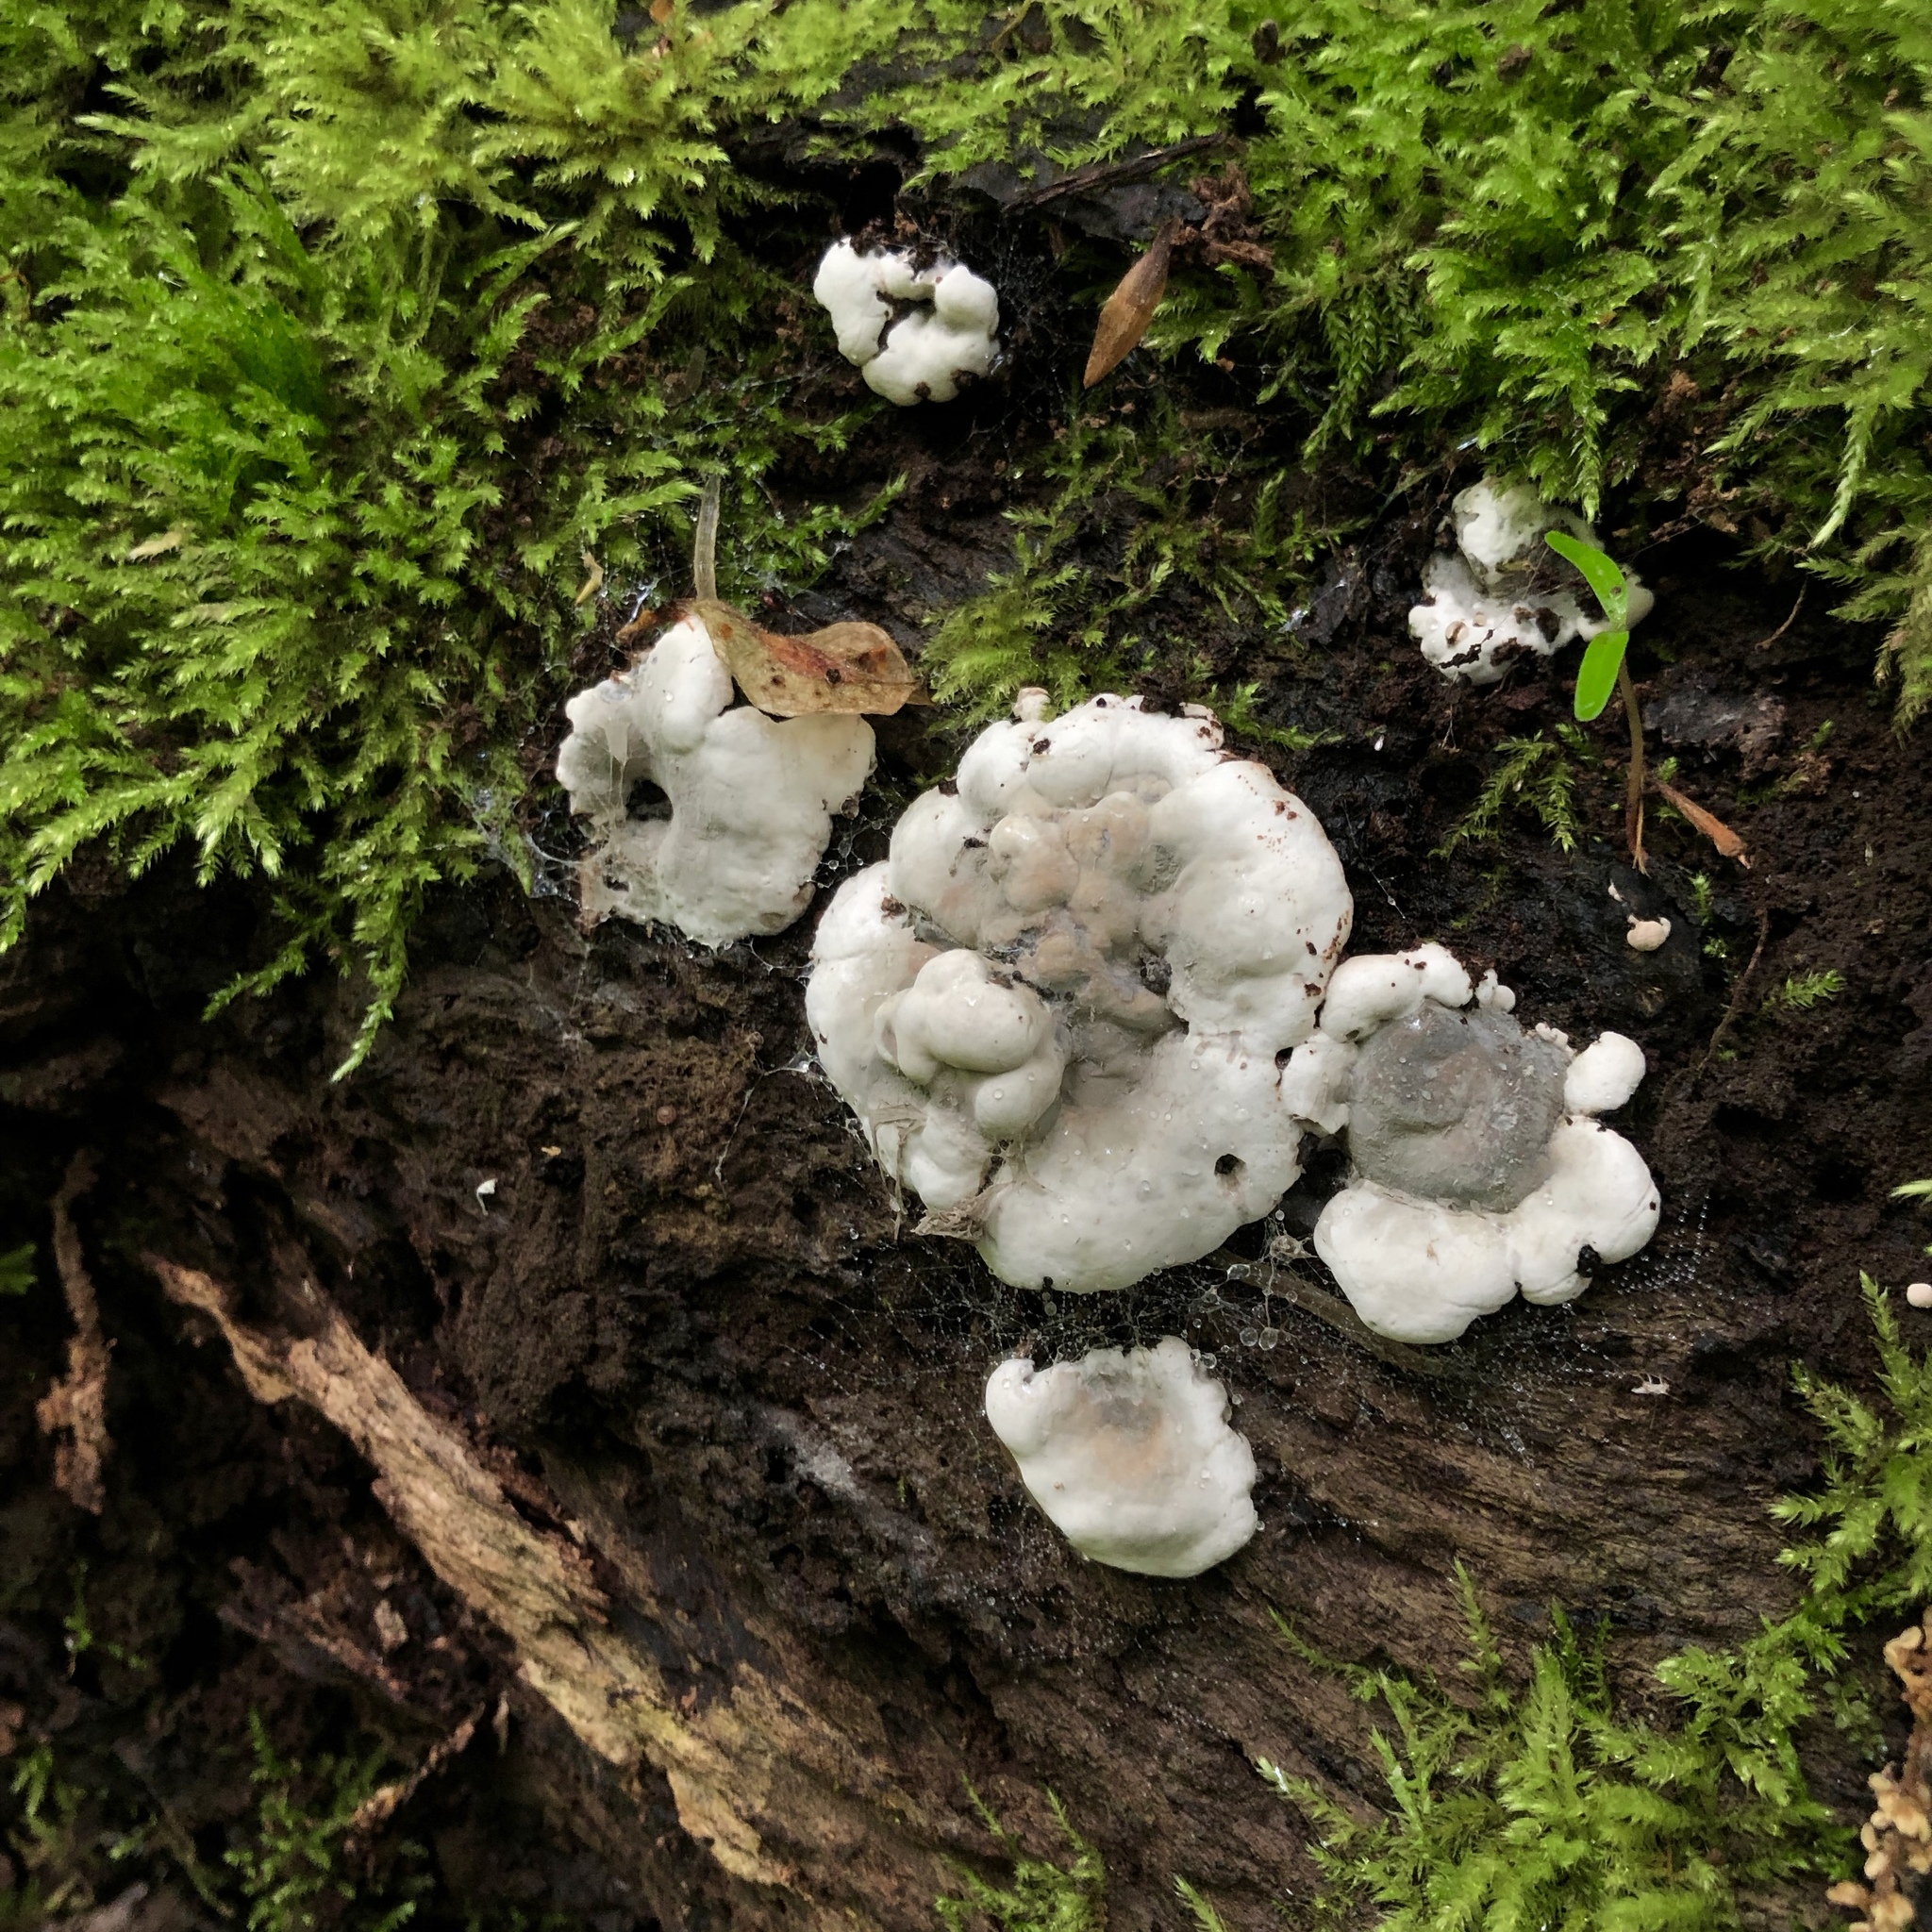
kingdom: Fungi
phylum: Ascomycota
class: Sordariomycetes
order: Xylariales
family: Xylariaceae
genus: Kretzschmaria
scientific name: Kretzschmaria deusta
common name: Brittle cinder
